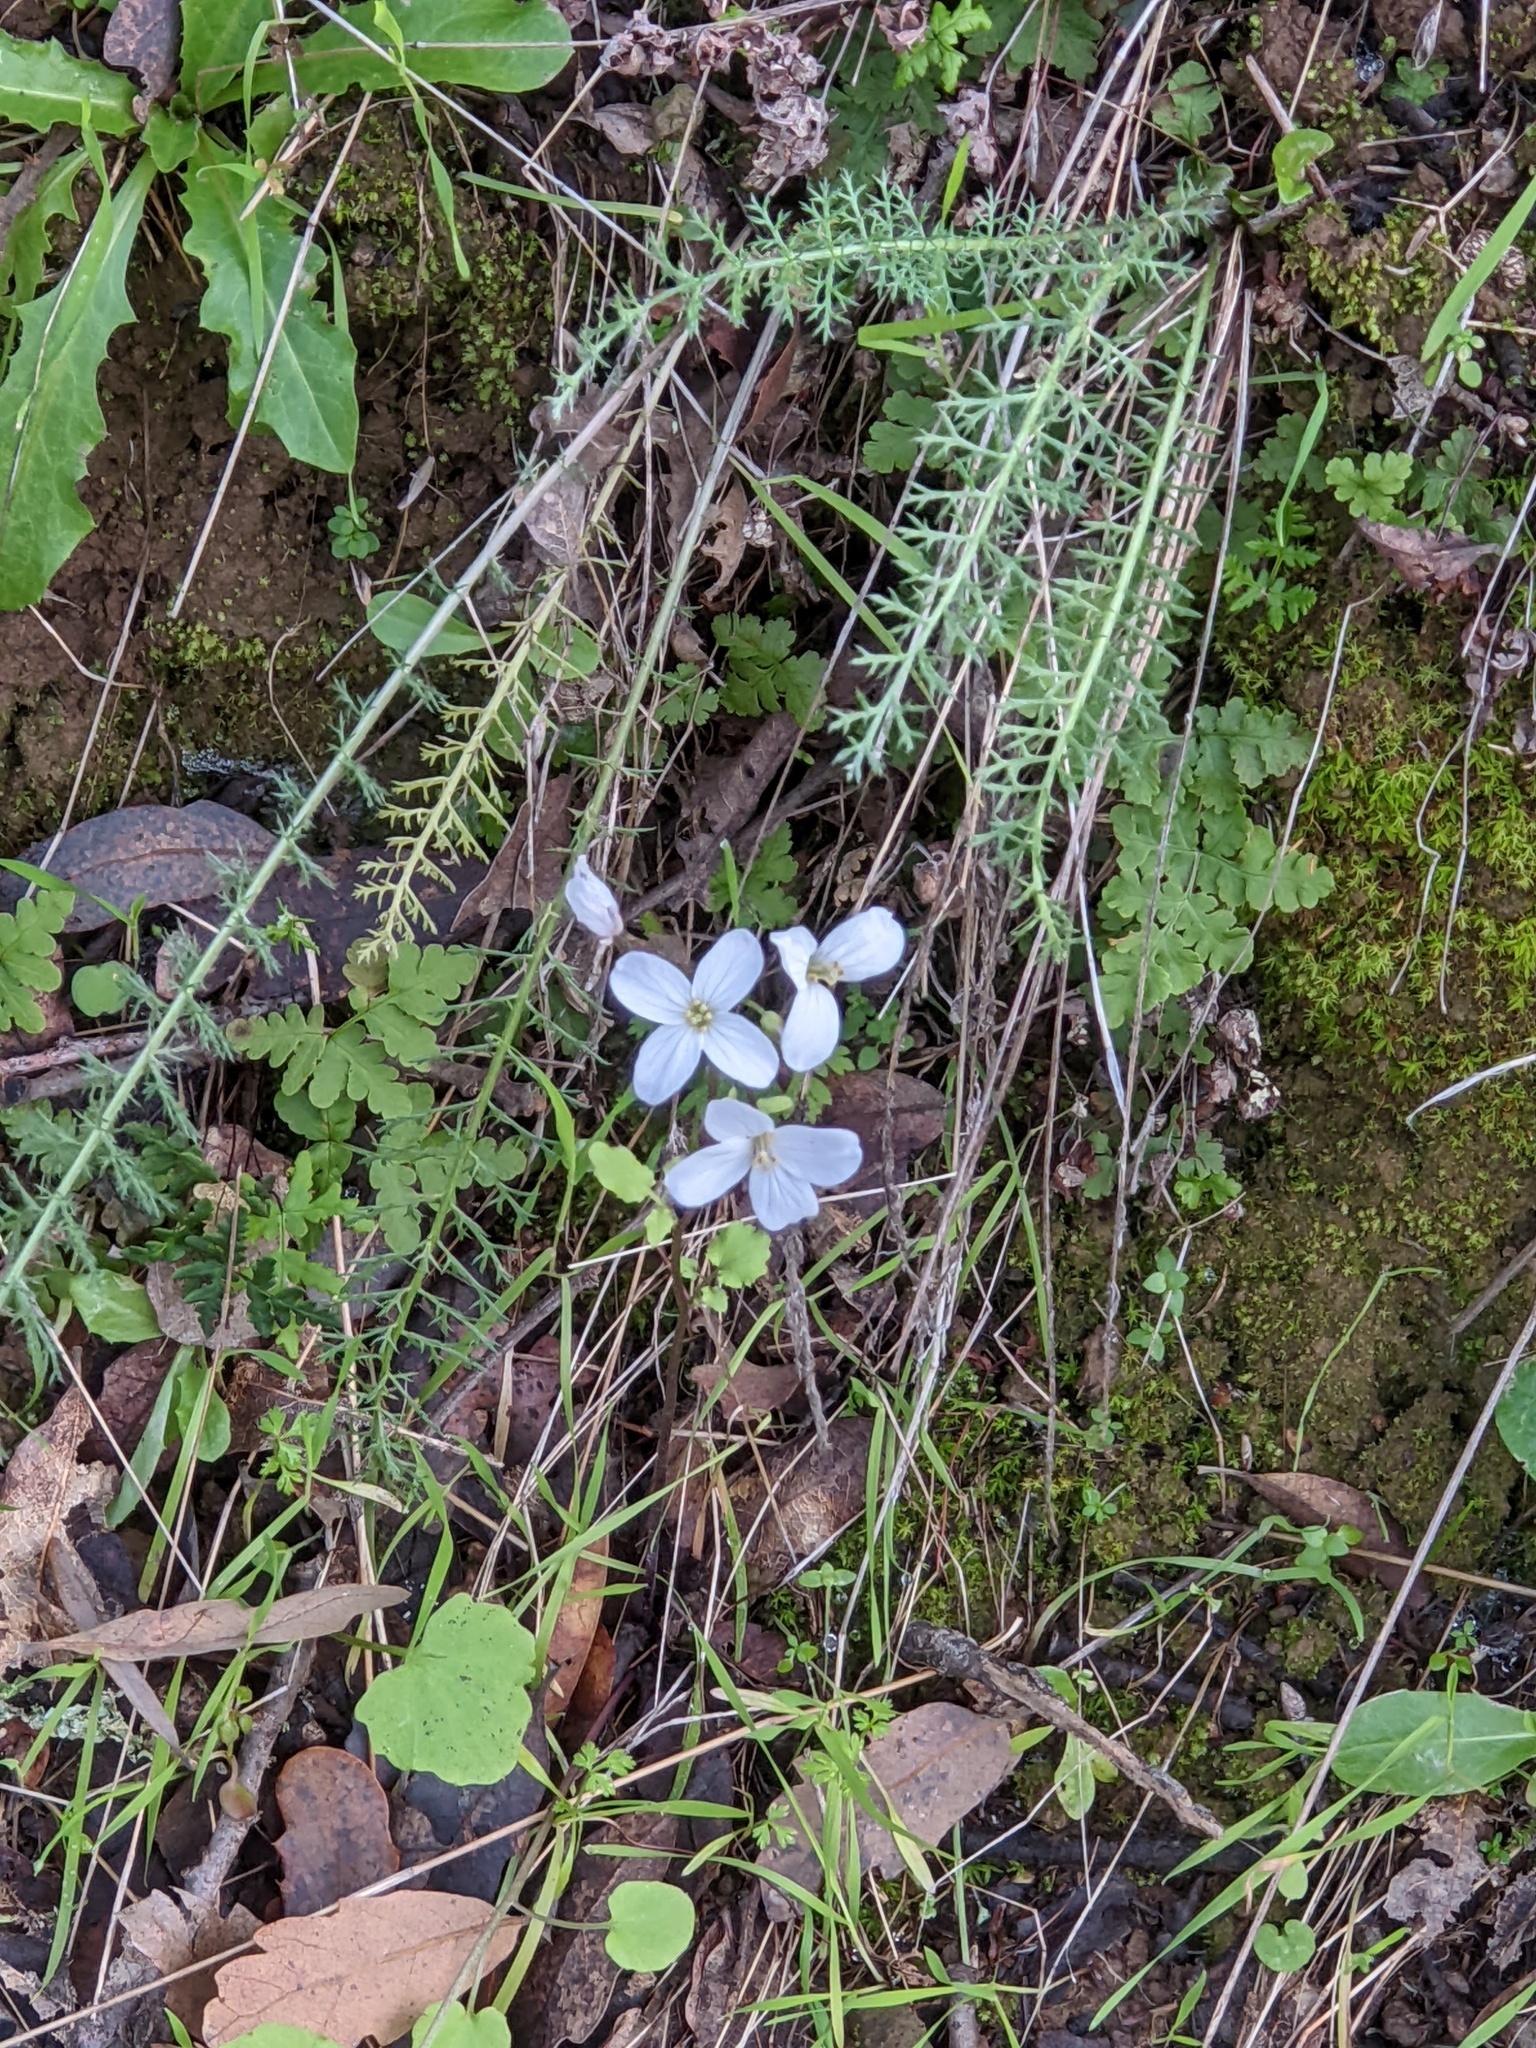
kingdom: Plantae
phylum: Tracheophyta
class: Magnoliopsida
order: Brassicales
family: Brassicaceae
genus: Cardamine
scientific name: Cardamine californica
